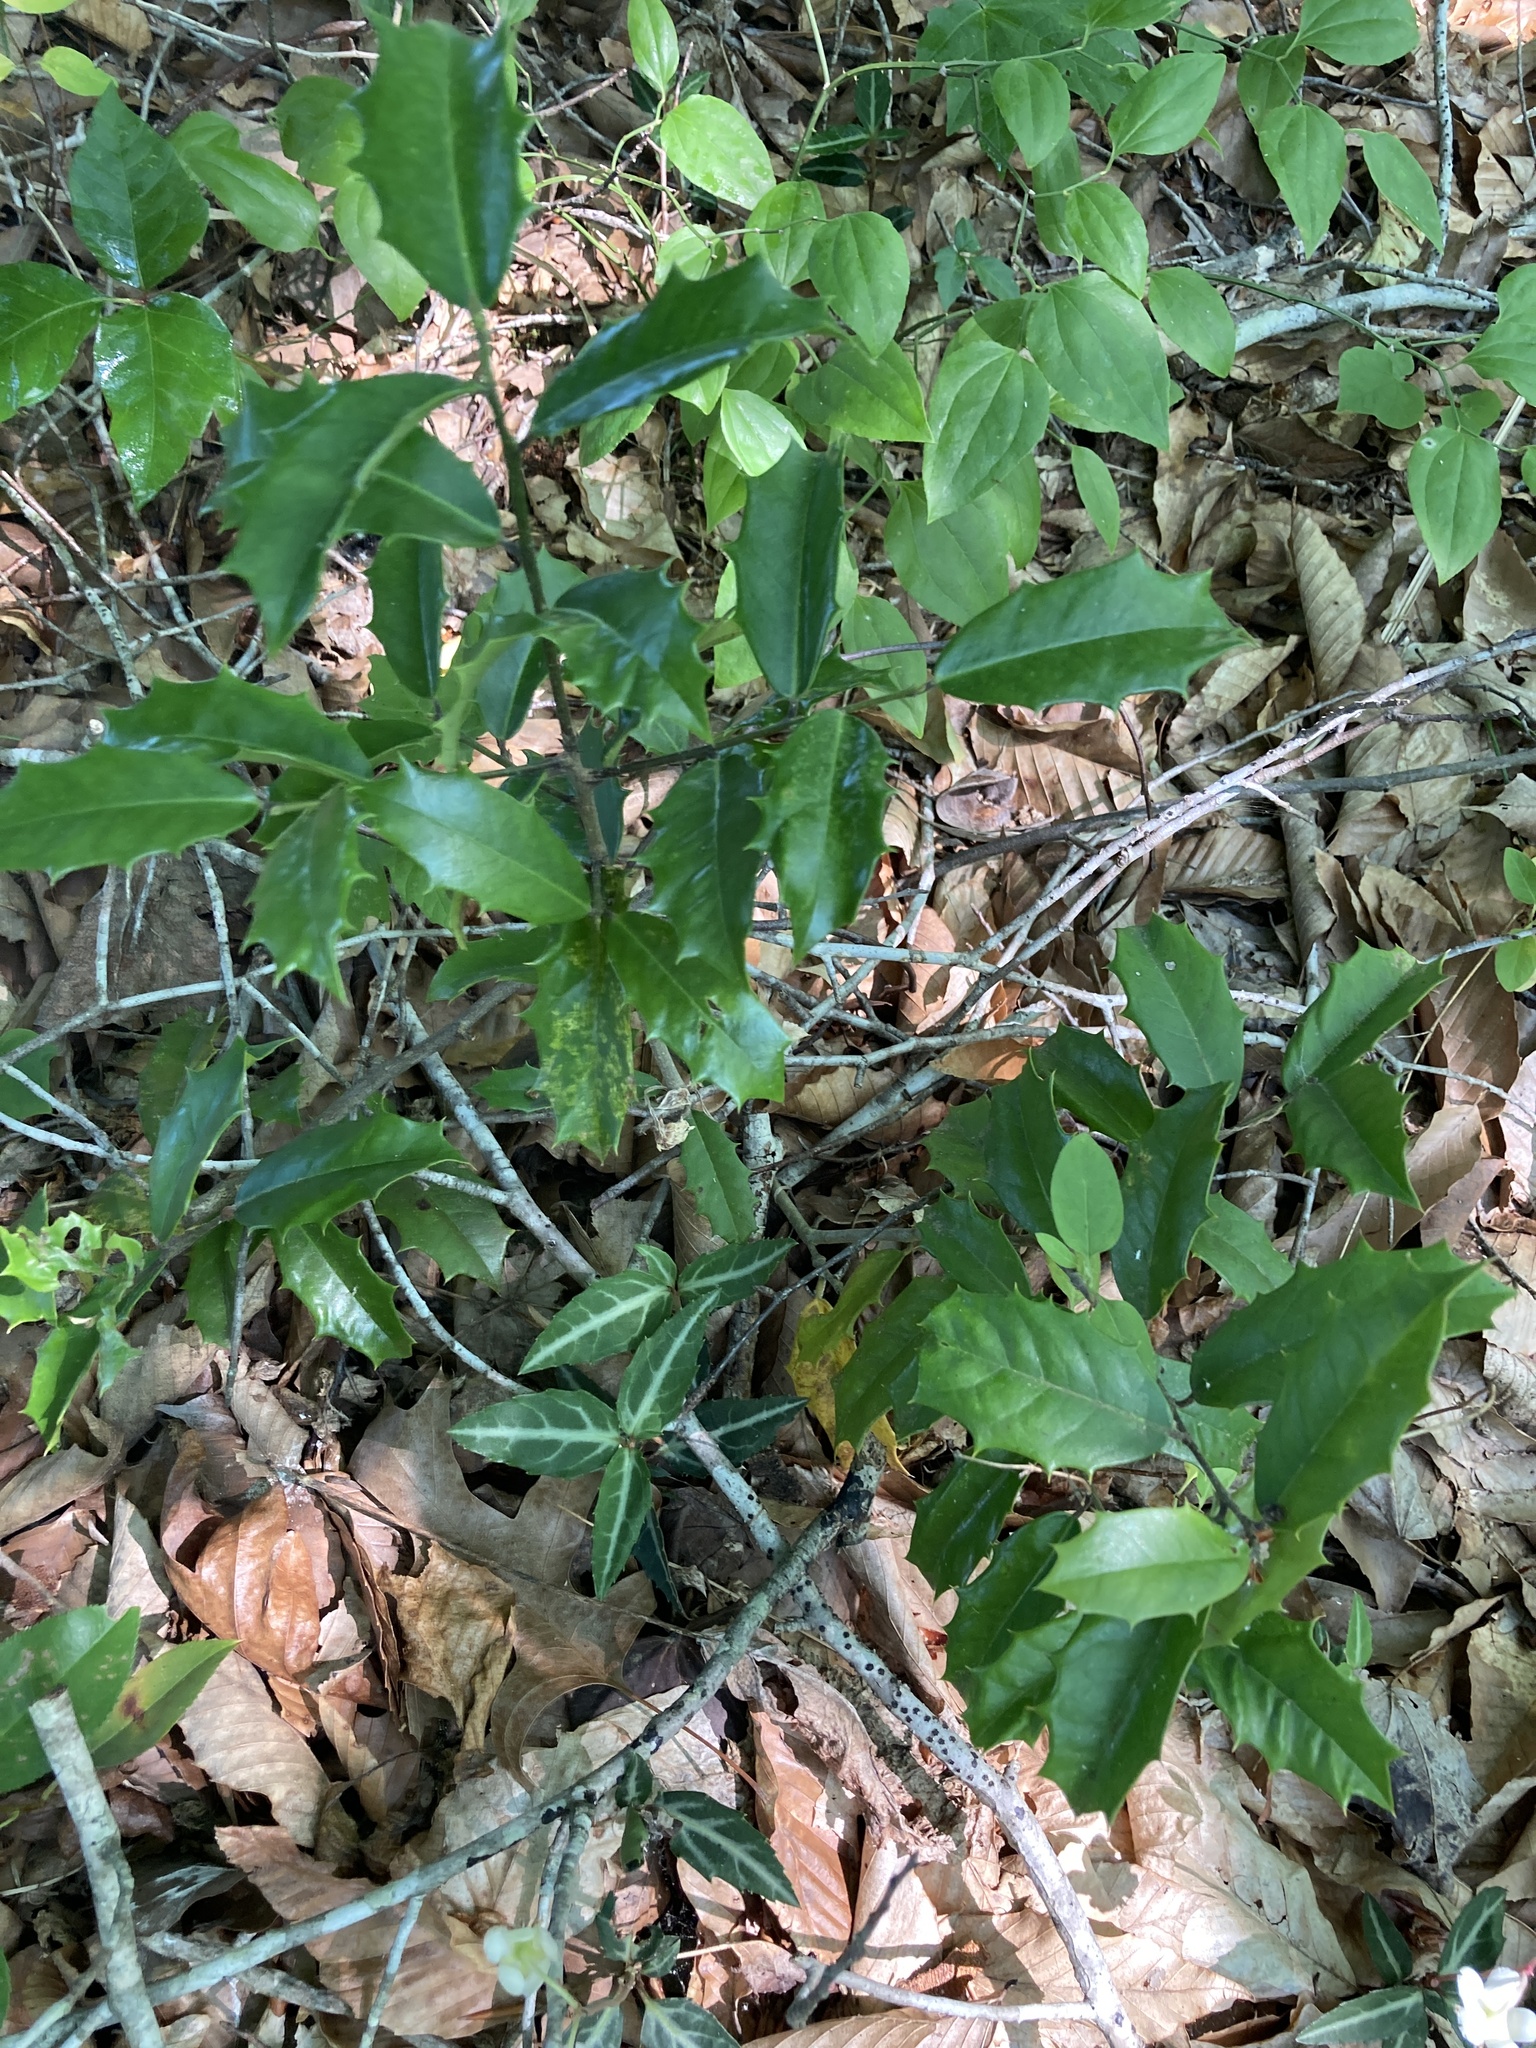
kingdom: Plantae
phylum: Tracheophyta
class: Magnoliopsida
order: Aquifoliales
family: Aquifoliaceae
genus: Ilex
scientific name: Ilex opaca
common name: American holly
